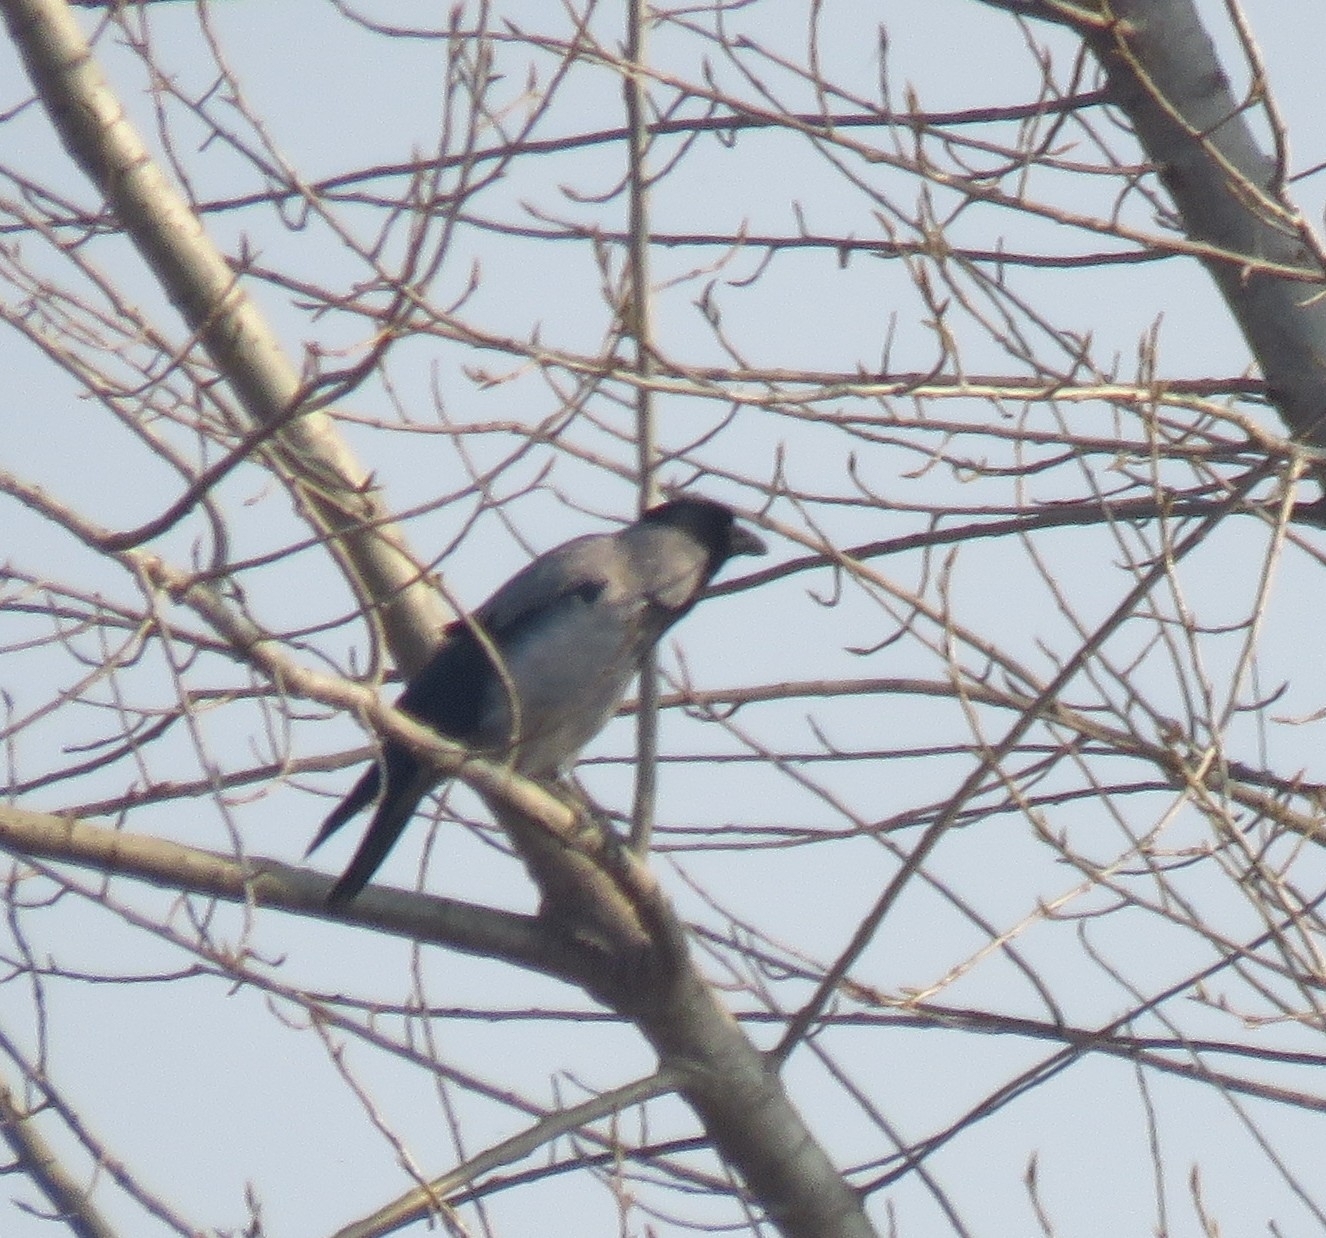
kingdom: Animalia
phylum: Chordata
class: Aves
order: Passeriformes
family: Corvidae
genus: Corvus
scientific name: Corvus cornix
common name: Hooded crow
